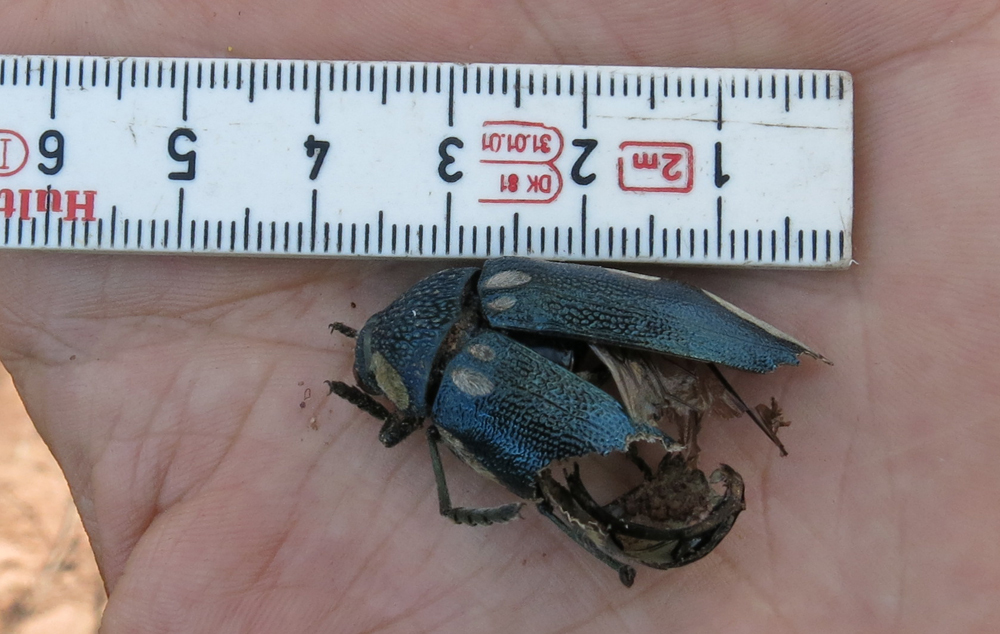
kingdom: Animalia
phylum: Arthropoda
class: Insecta
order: Coleoptera
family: Buprestidae
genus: Sternocera
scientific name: Sternocera orissa
